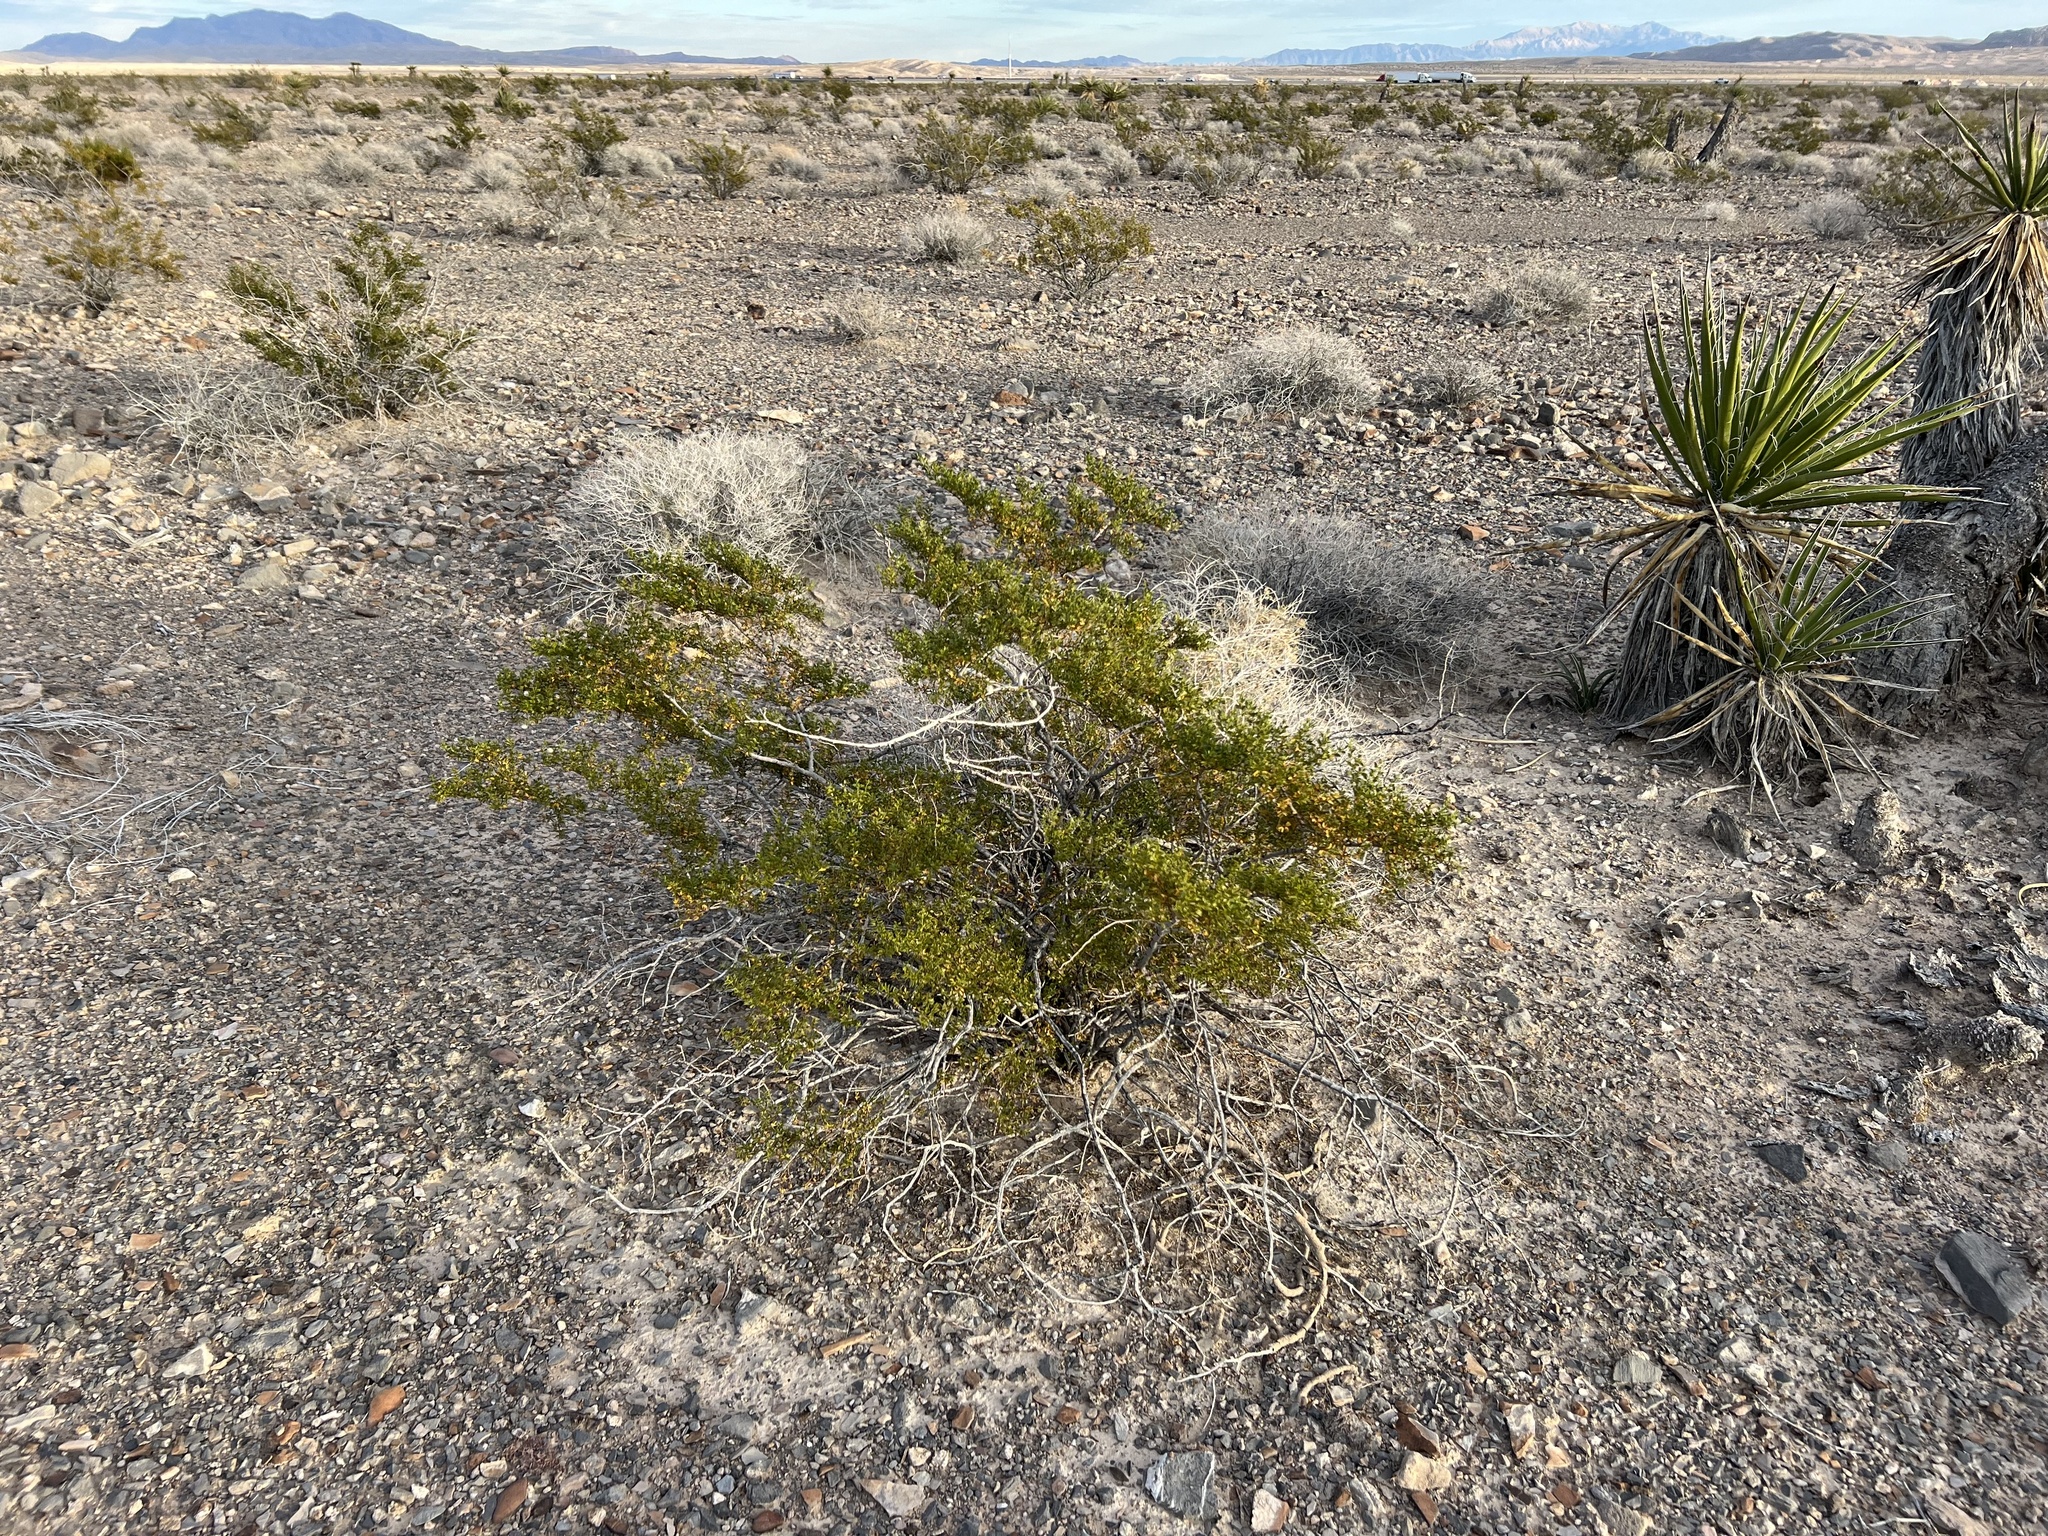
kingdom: Plantae
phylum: Tracheophyta
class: Magnoliopsida
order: Zygophyllales
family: Zygophyllaceae
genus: Larrea
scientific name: Larrea tridentata
